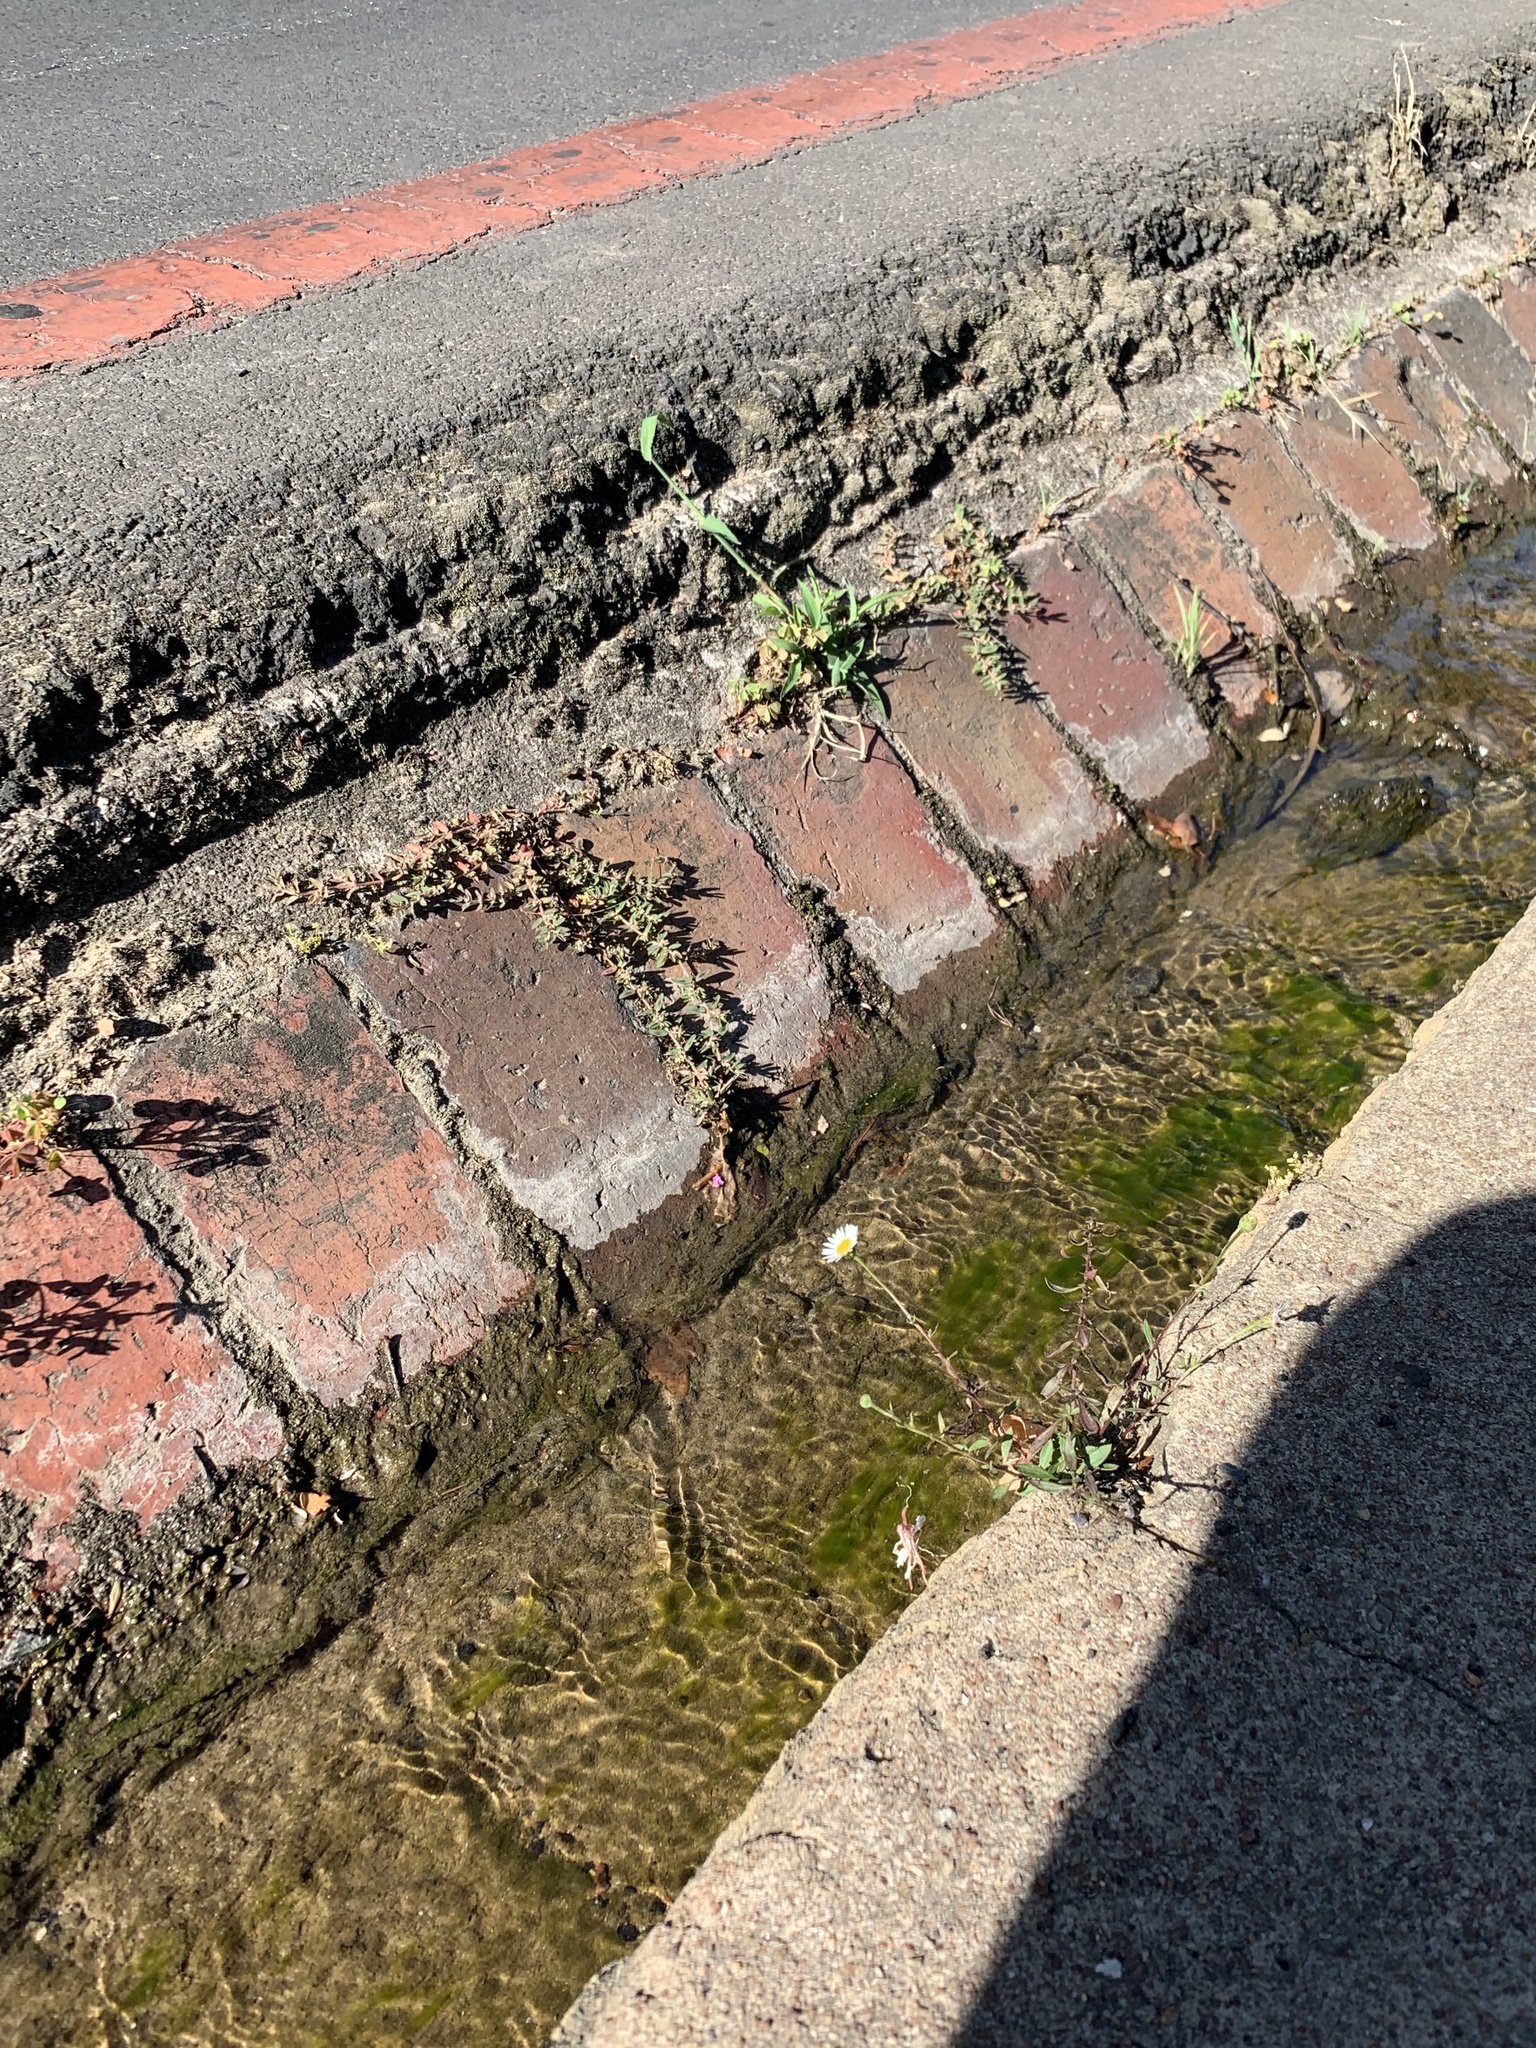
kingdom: Plantae
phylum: Tracheophyta
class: Magnoliopsida
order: Asterales
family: Asteraceae
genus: Erigeron
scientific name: Erigeron karvinskianus
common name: Mexican fleabane
